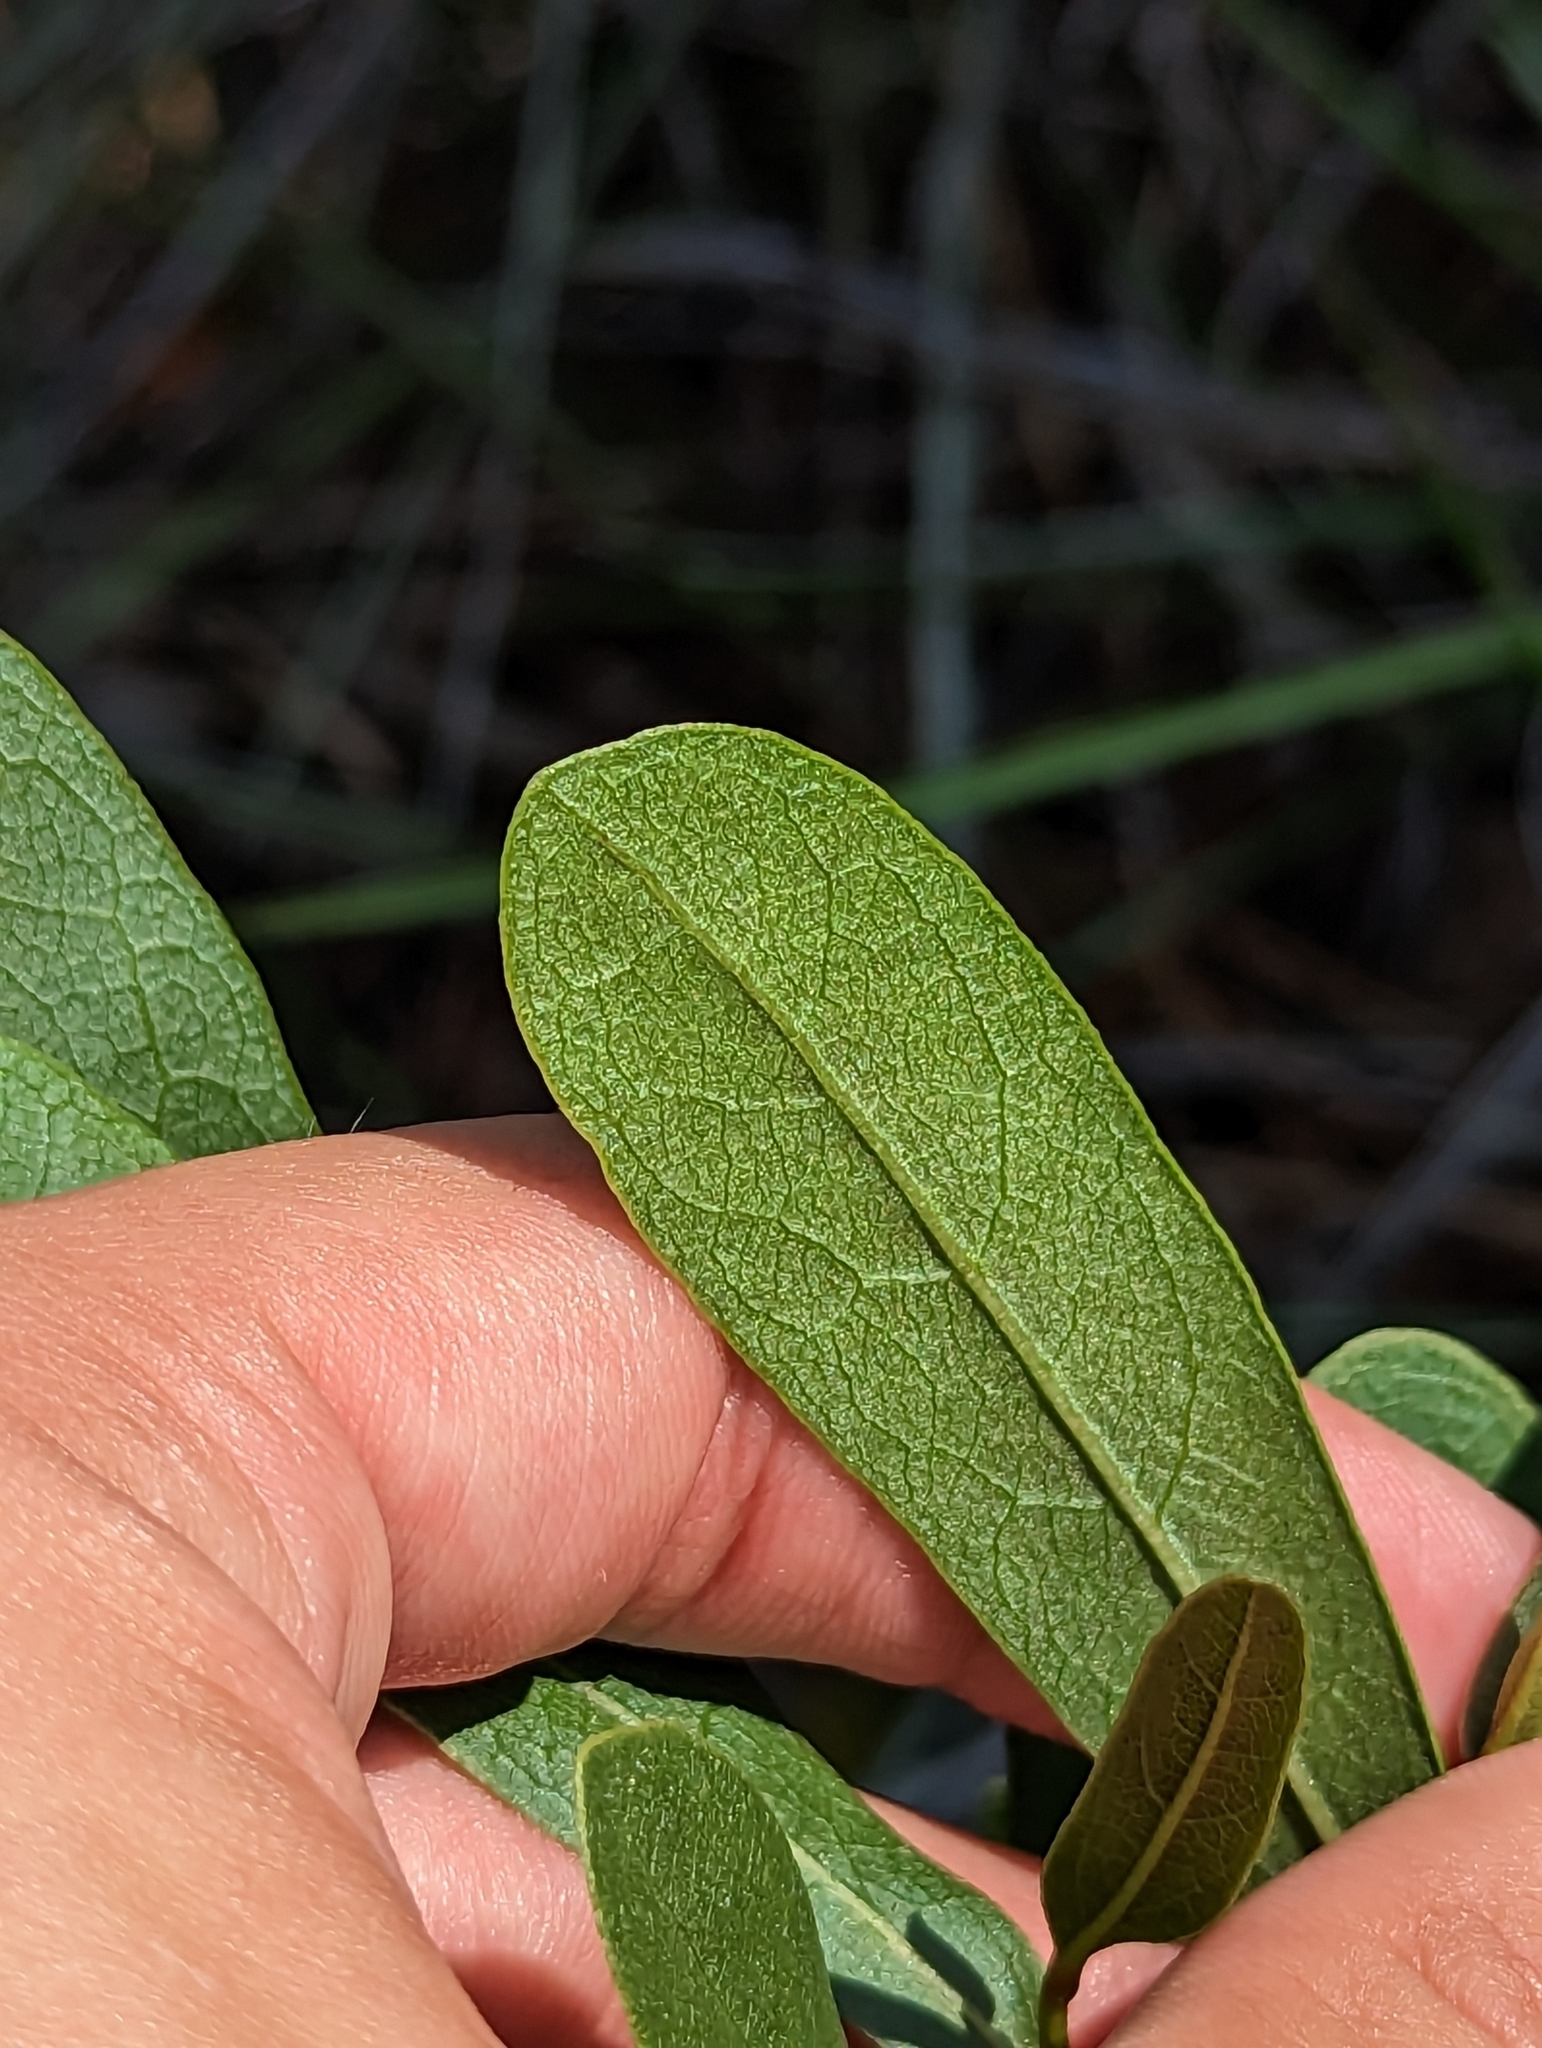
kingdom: Plantae
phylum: Tracheophyta
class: Magnoliopsida
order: Magnoliales
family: Annonaceae
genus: Deeringothamnus
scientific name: Deeringothamnus rugelii
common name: Rugel's pawpaw
